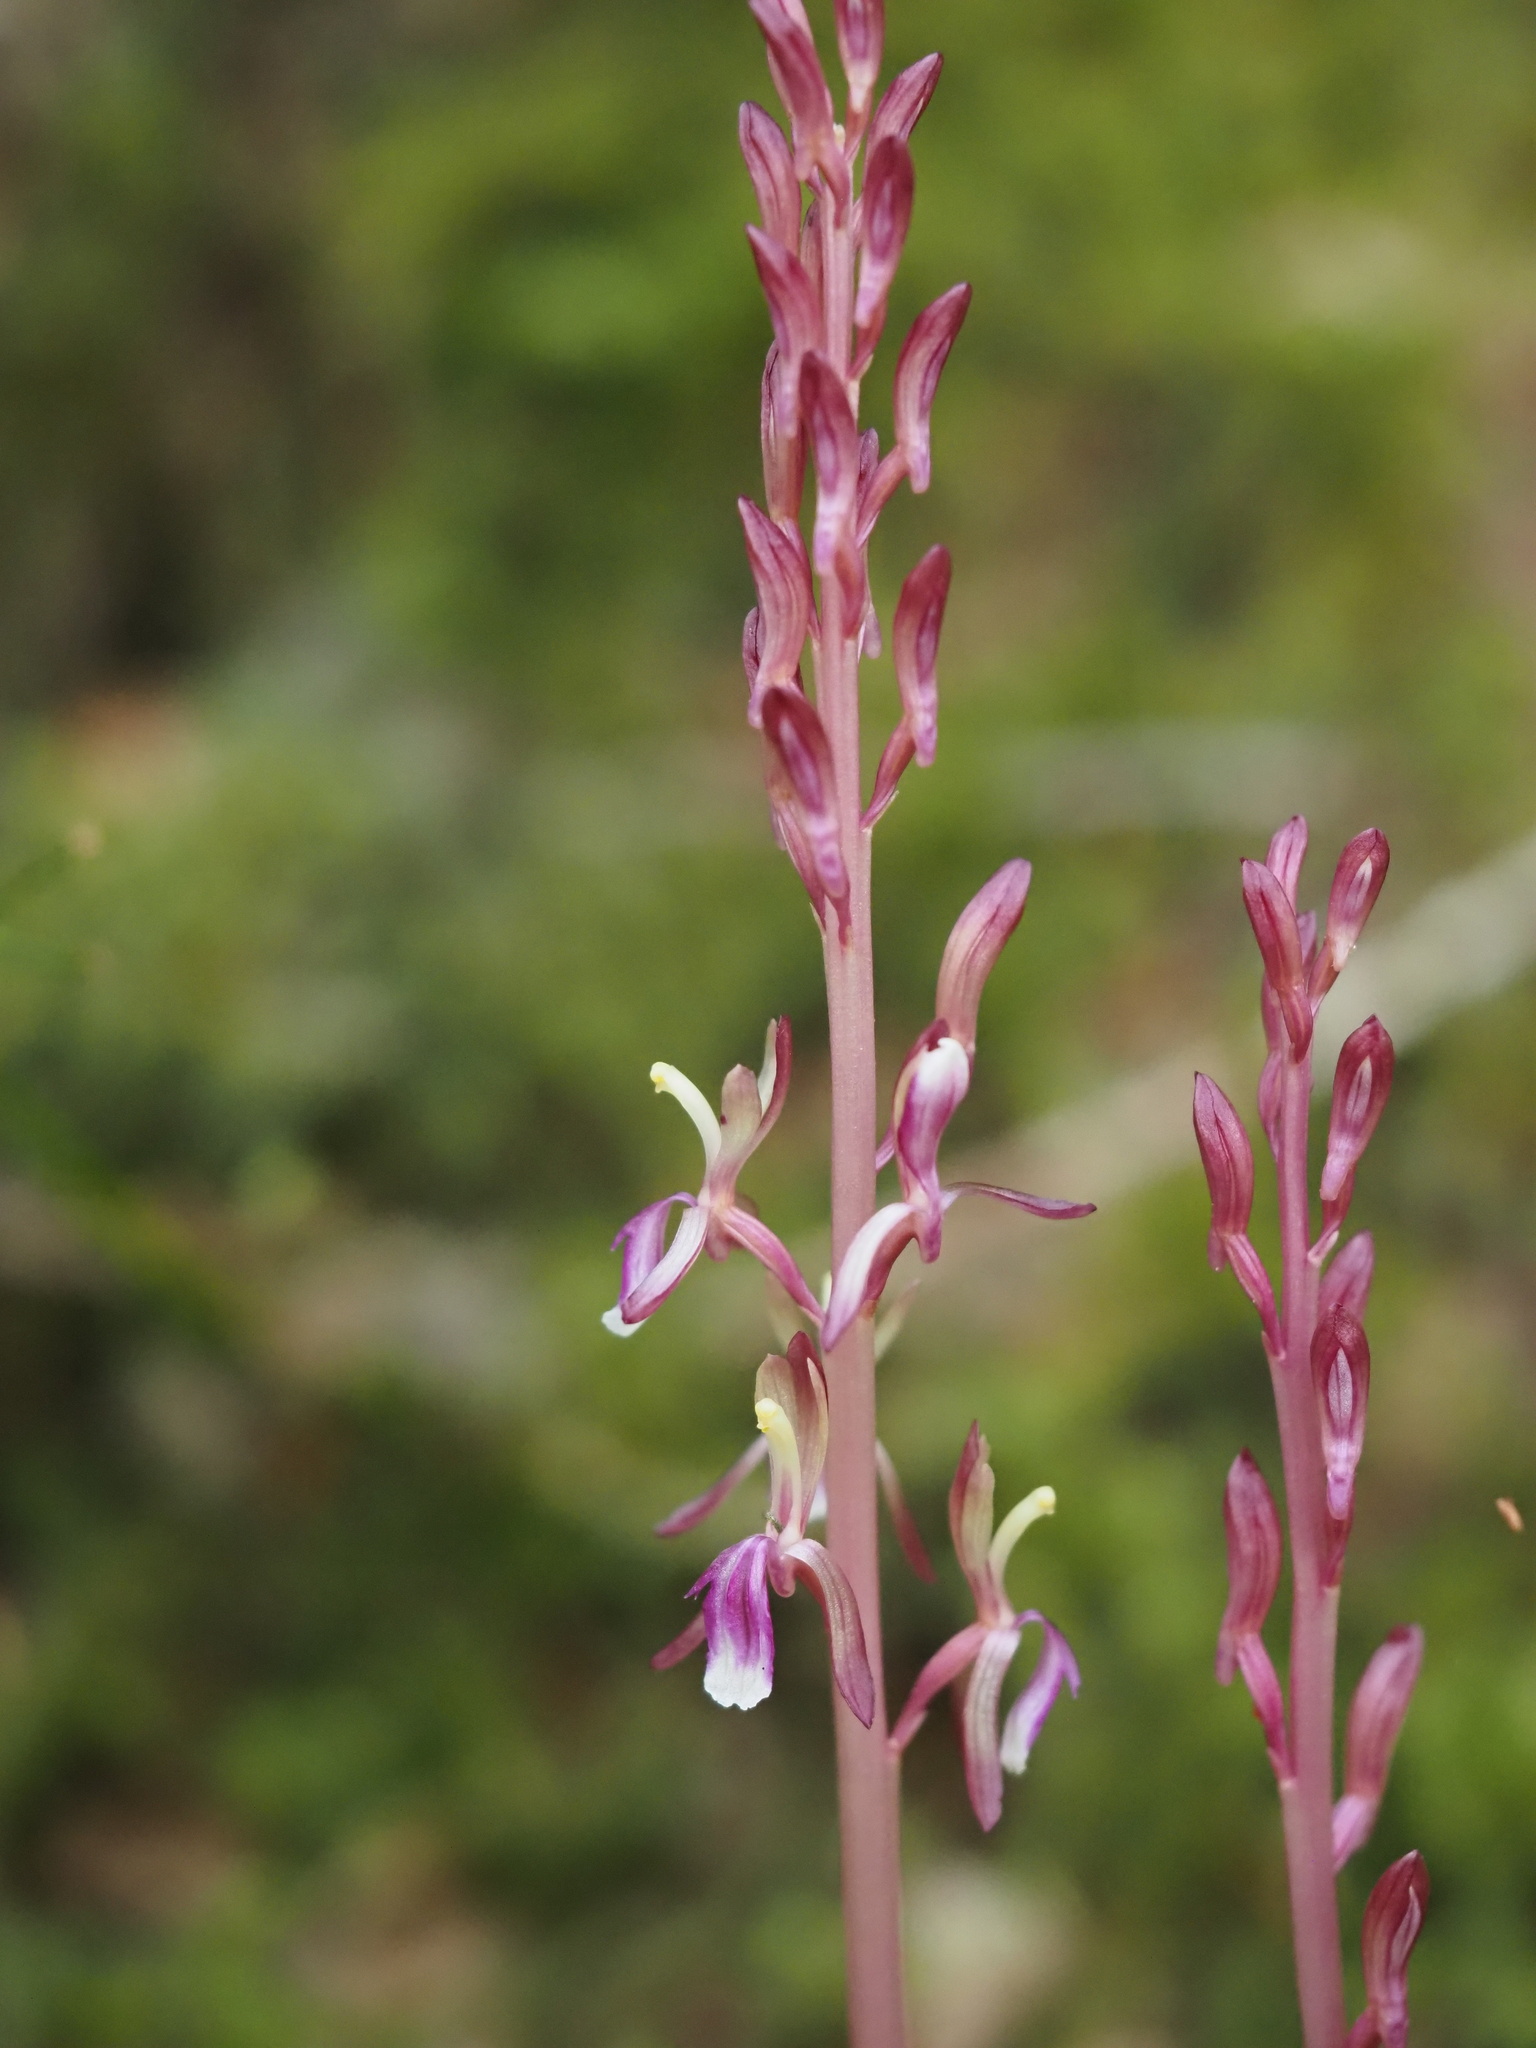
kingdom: Plantae
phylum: Tracheophyta
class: Liliopsida
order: Asparagales
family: Orchidaceae
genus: Corallorhiza
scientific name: Corallorhiza mertensiana
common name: Pacific coralroot
